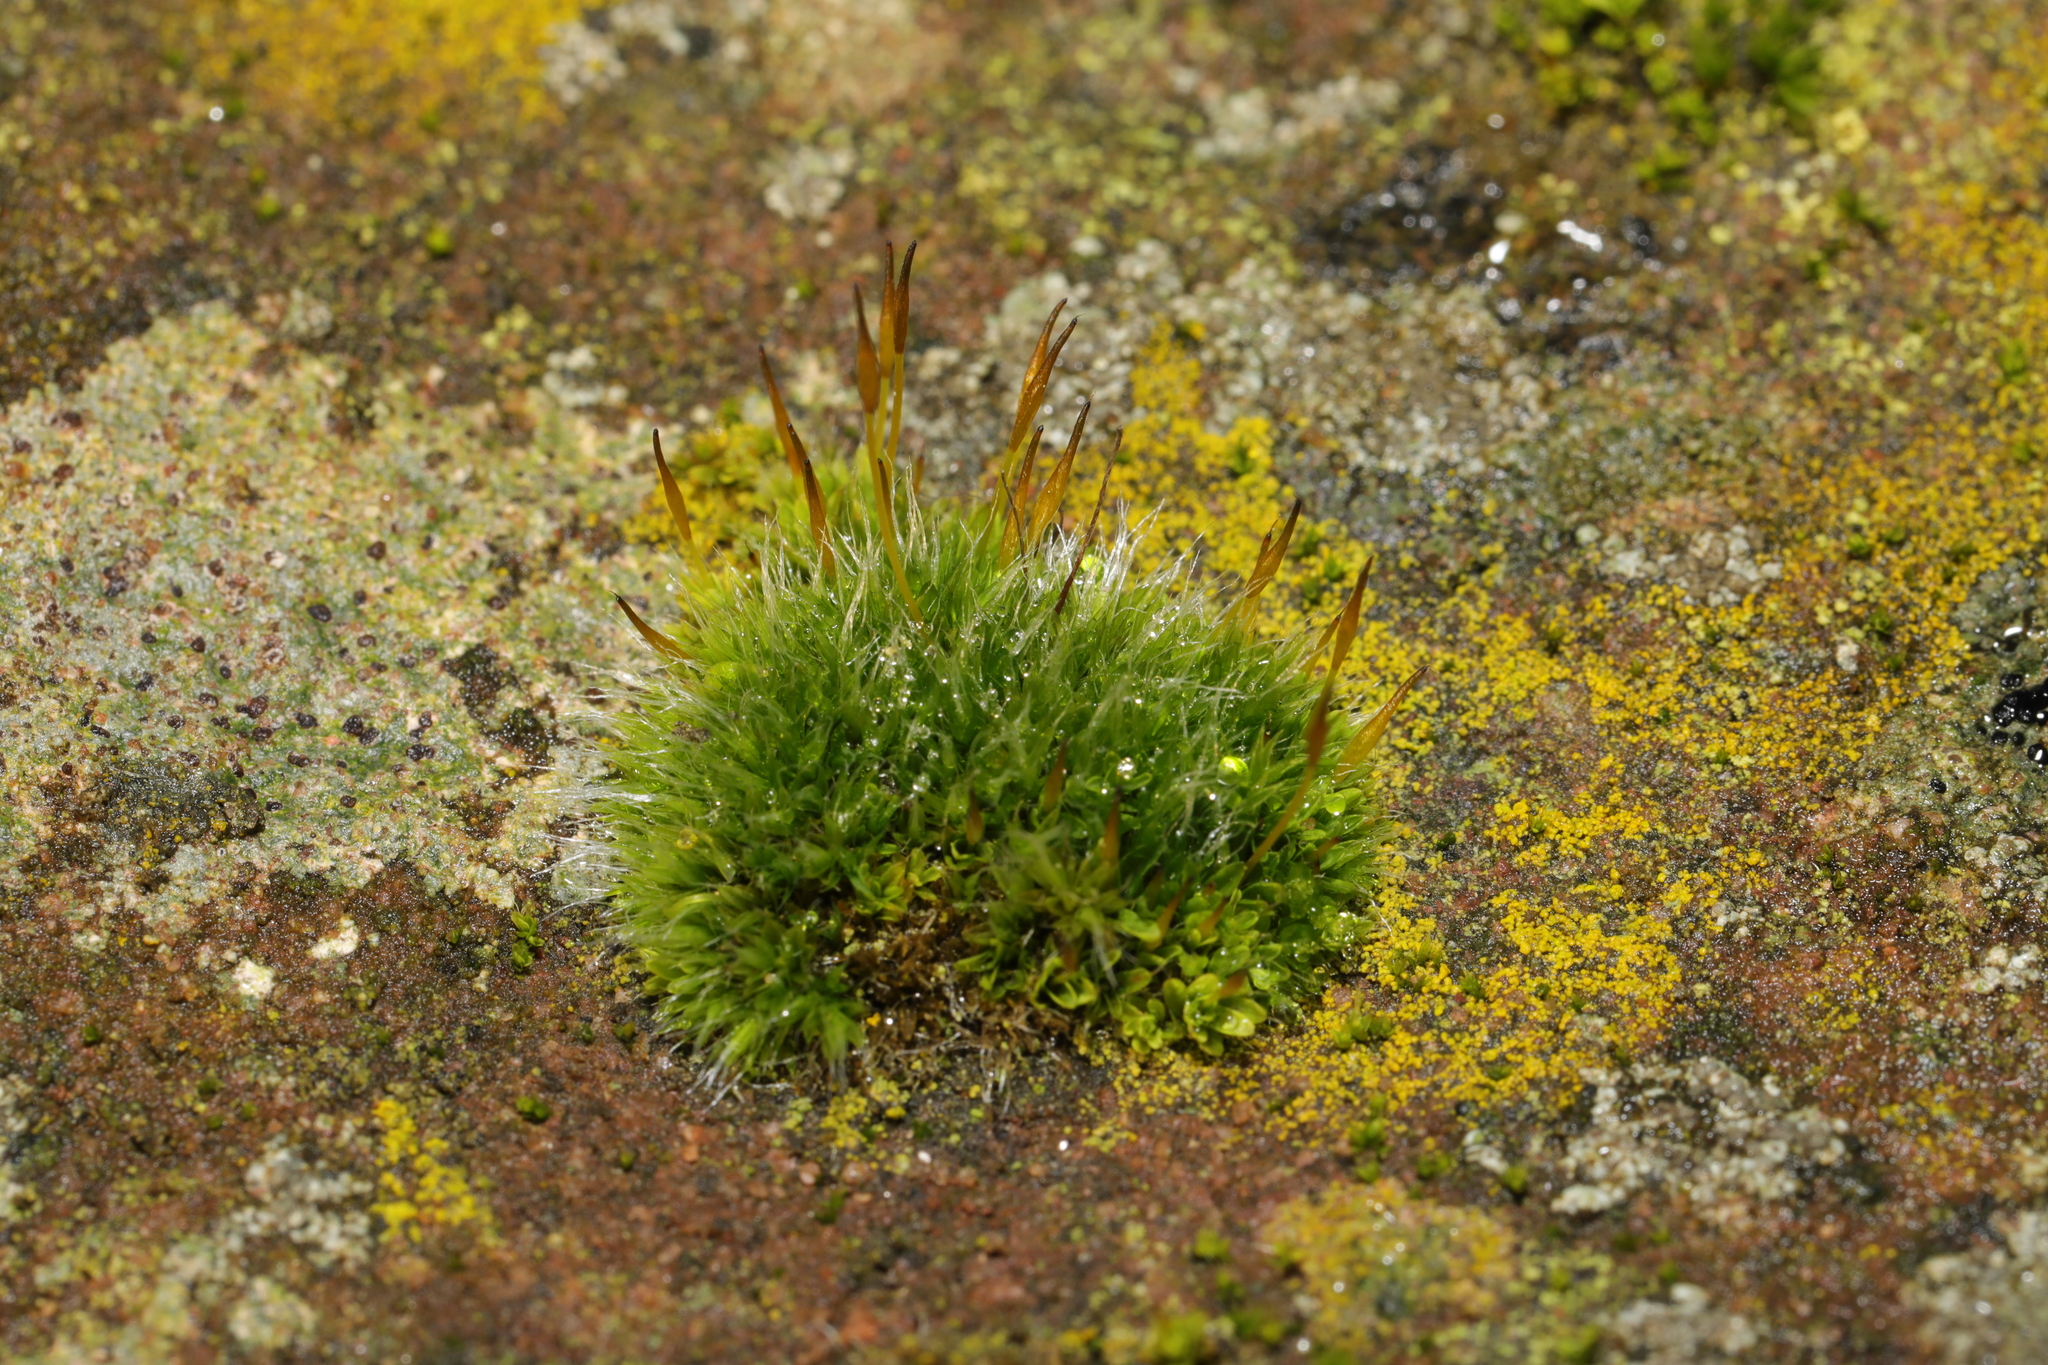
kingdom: Plantae
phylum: Bryophyta
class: Bryopsida
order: Pottiales
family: Pottiaceae
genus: Tortula
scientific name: Tortula muralis
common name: Wall screw-moss
